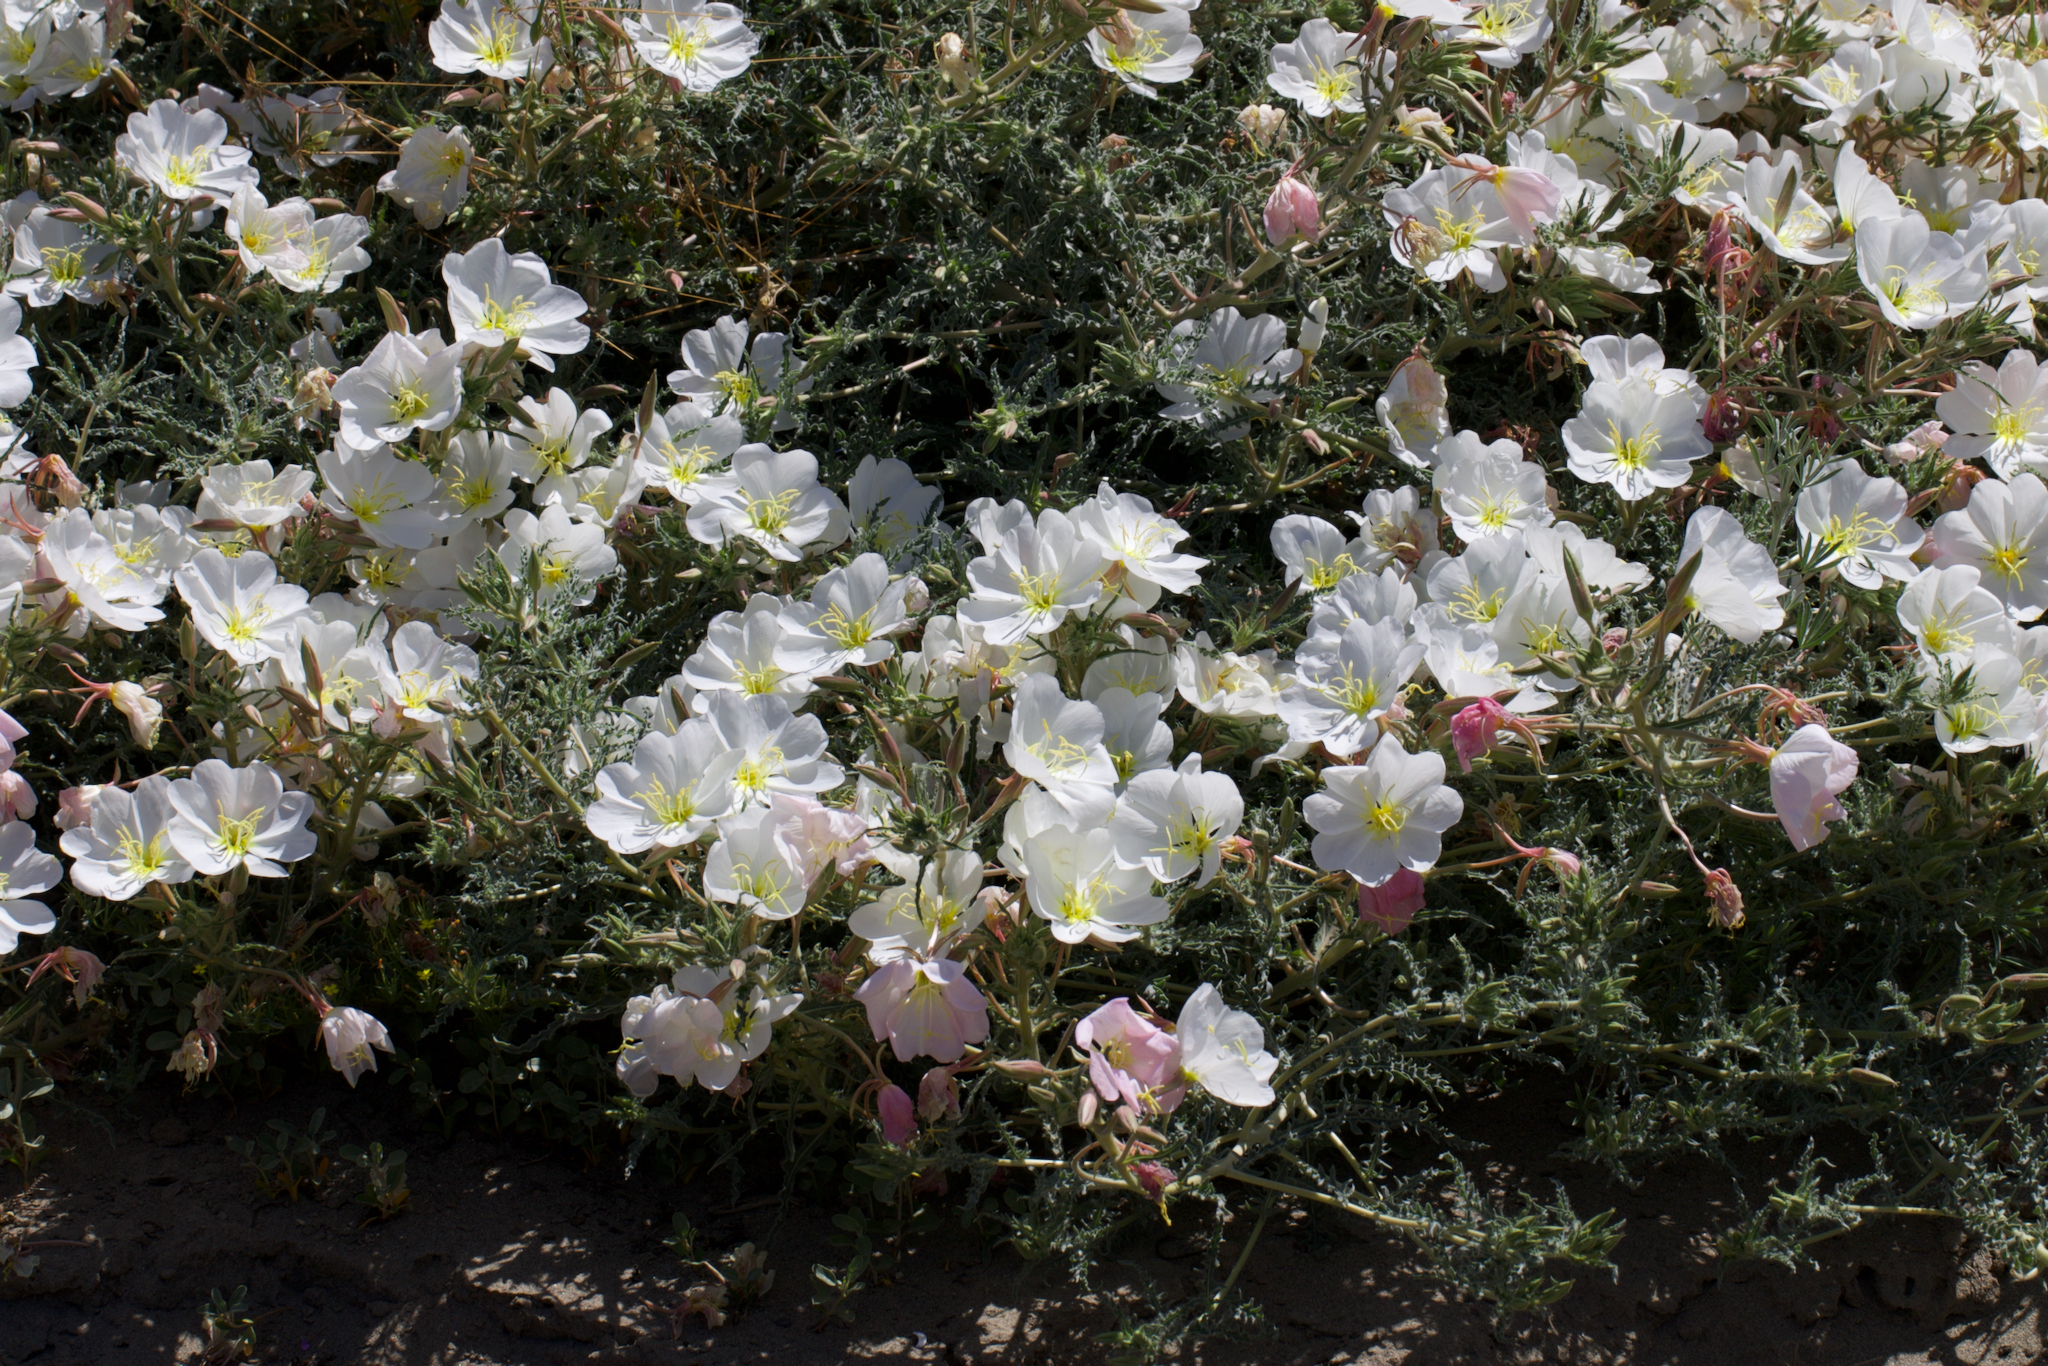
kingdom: Plantae
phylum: Tracheophyta
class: Magnoliopsida
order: Myrtales
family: Onagraceae
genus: Oenothera
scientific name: Oenothera deltoides
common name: Basket evening-primrose
